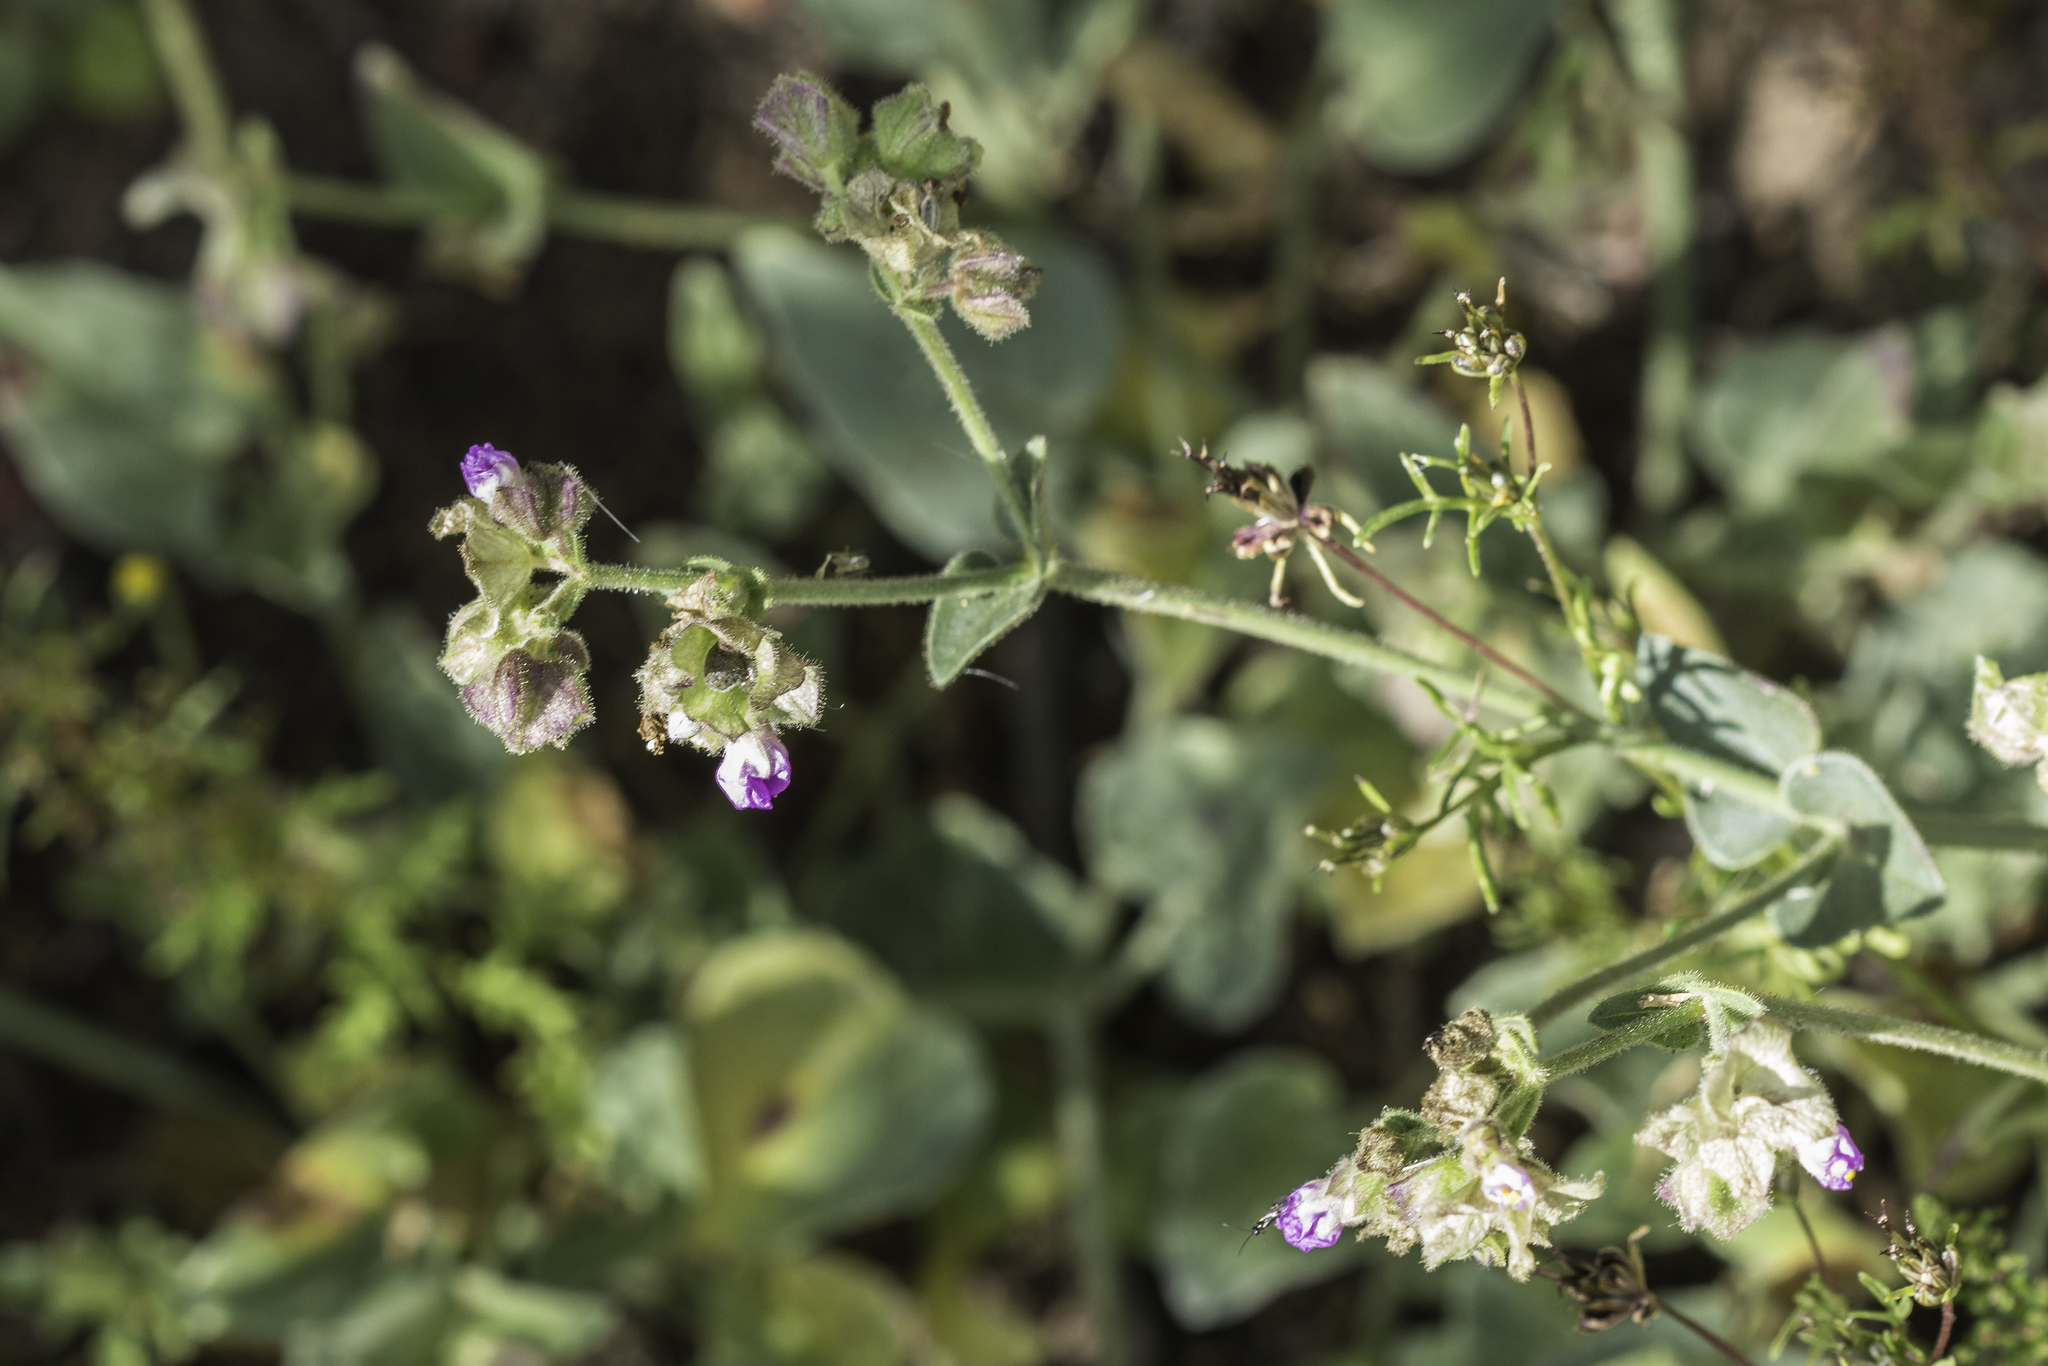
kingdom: Plantae
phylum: Tracheophyta
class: Magnoliopsida
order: Caryophyllales
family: Nyctaginaceae
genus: Mirabilis
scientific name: Mirabilis oxybaphoides
